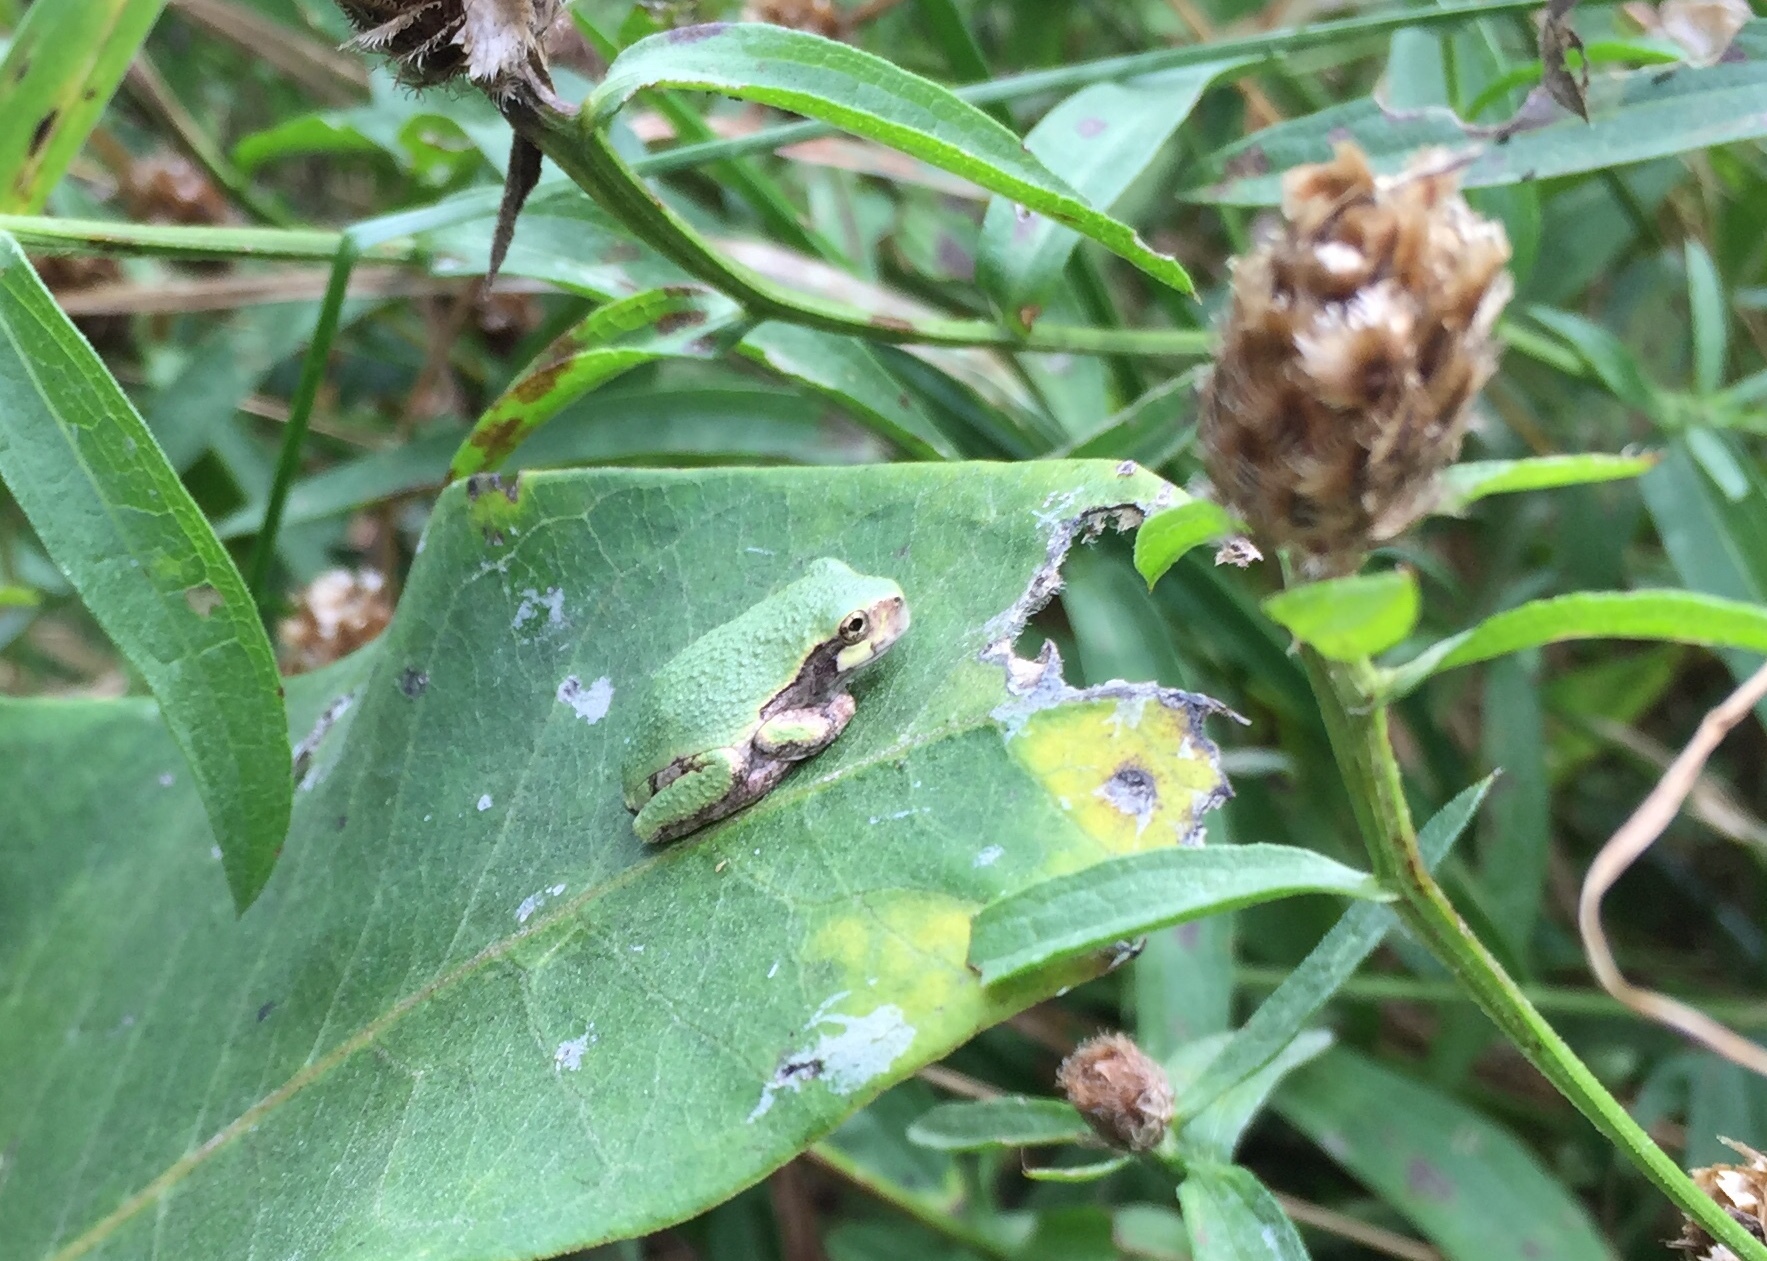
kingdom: Animalia
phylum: Chordata
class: Amphibia
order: Anura
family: Hylidae
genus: Dryophytes
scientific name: Dryophytes versicolor
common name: Gray treefrog
